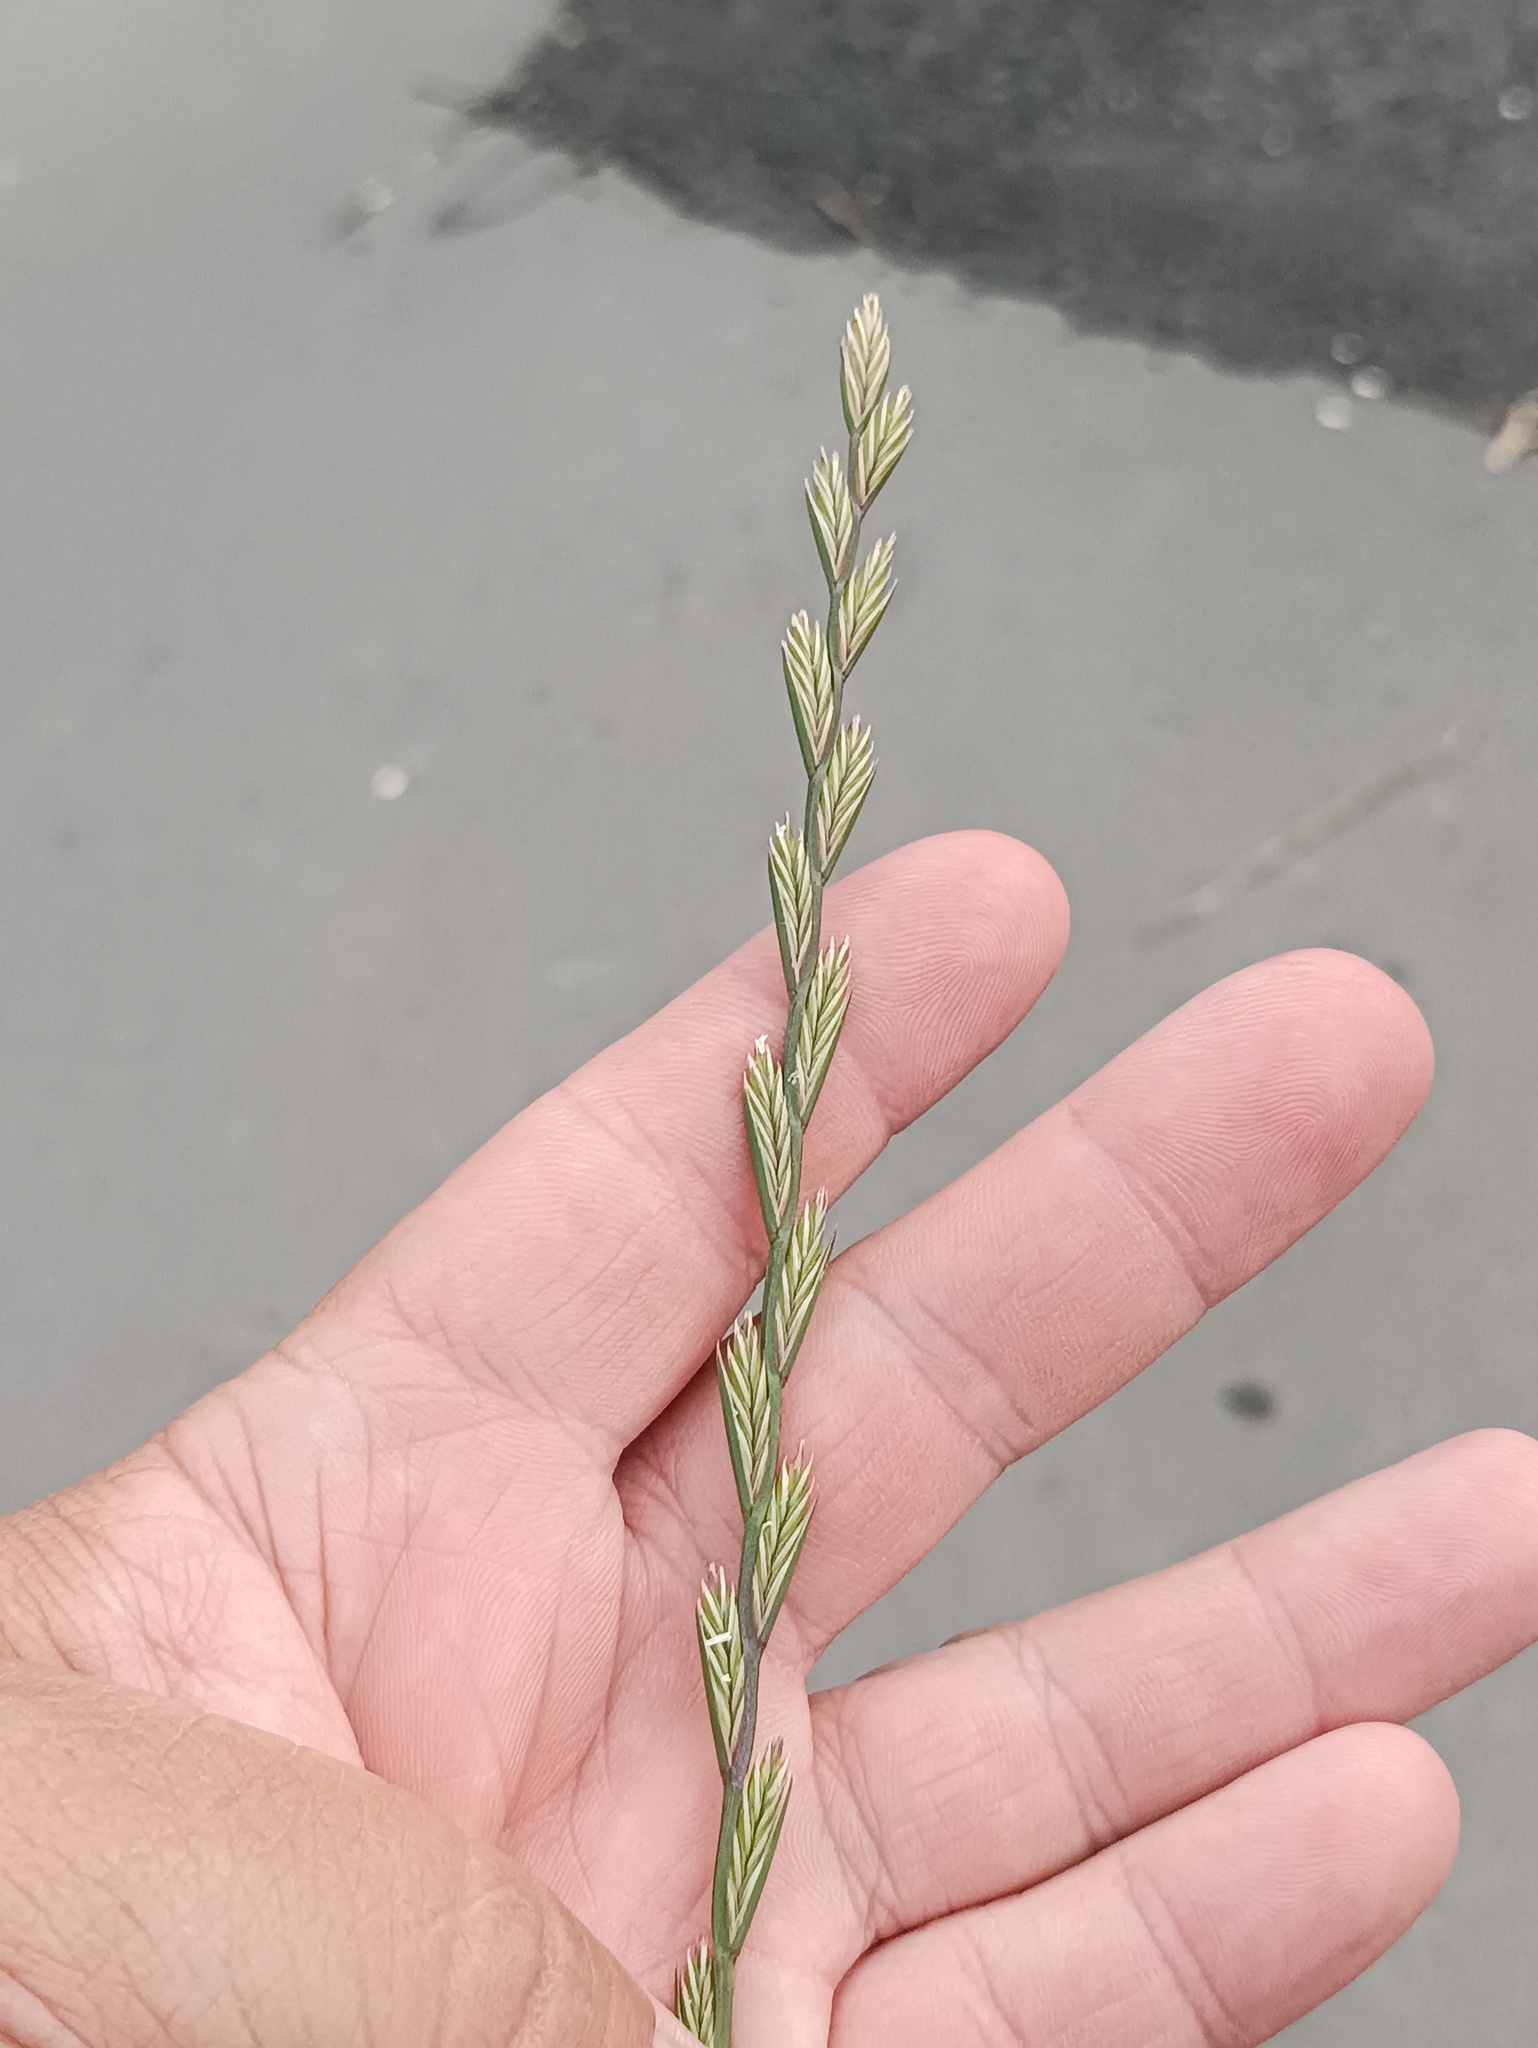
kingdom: Plantae
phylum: Tracheophyta
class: Liliopsida
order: Poales
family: Poaceae
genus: Lolium
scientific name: Lolium perenne
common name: Perennial ryegrass
